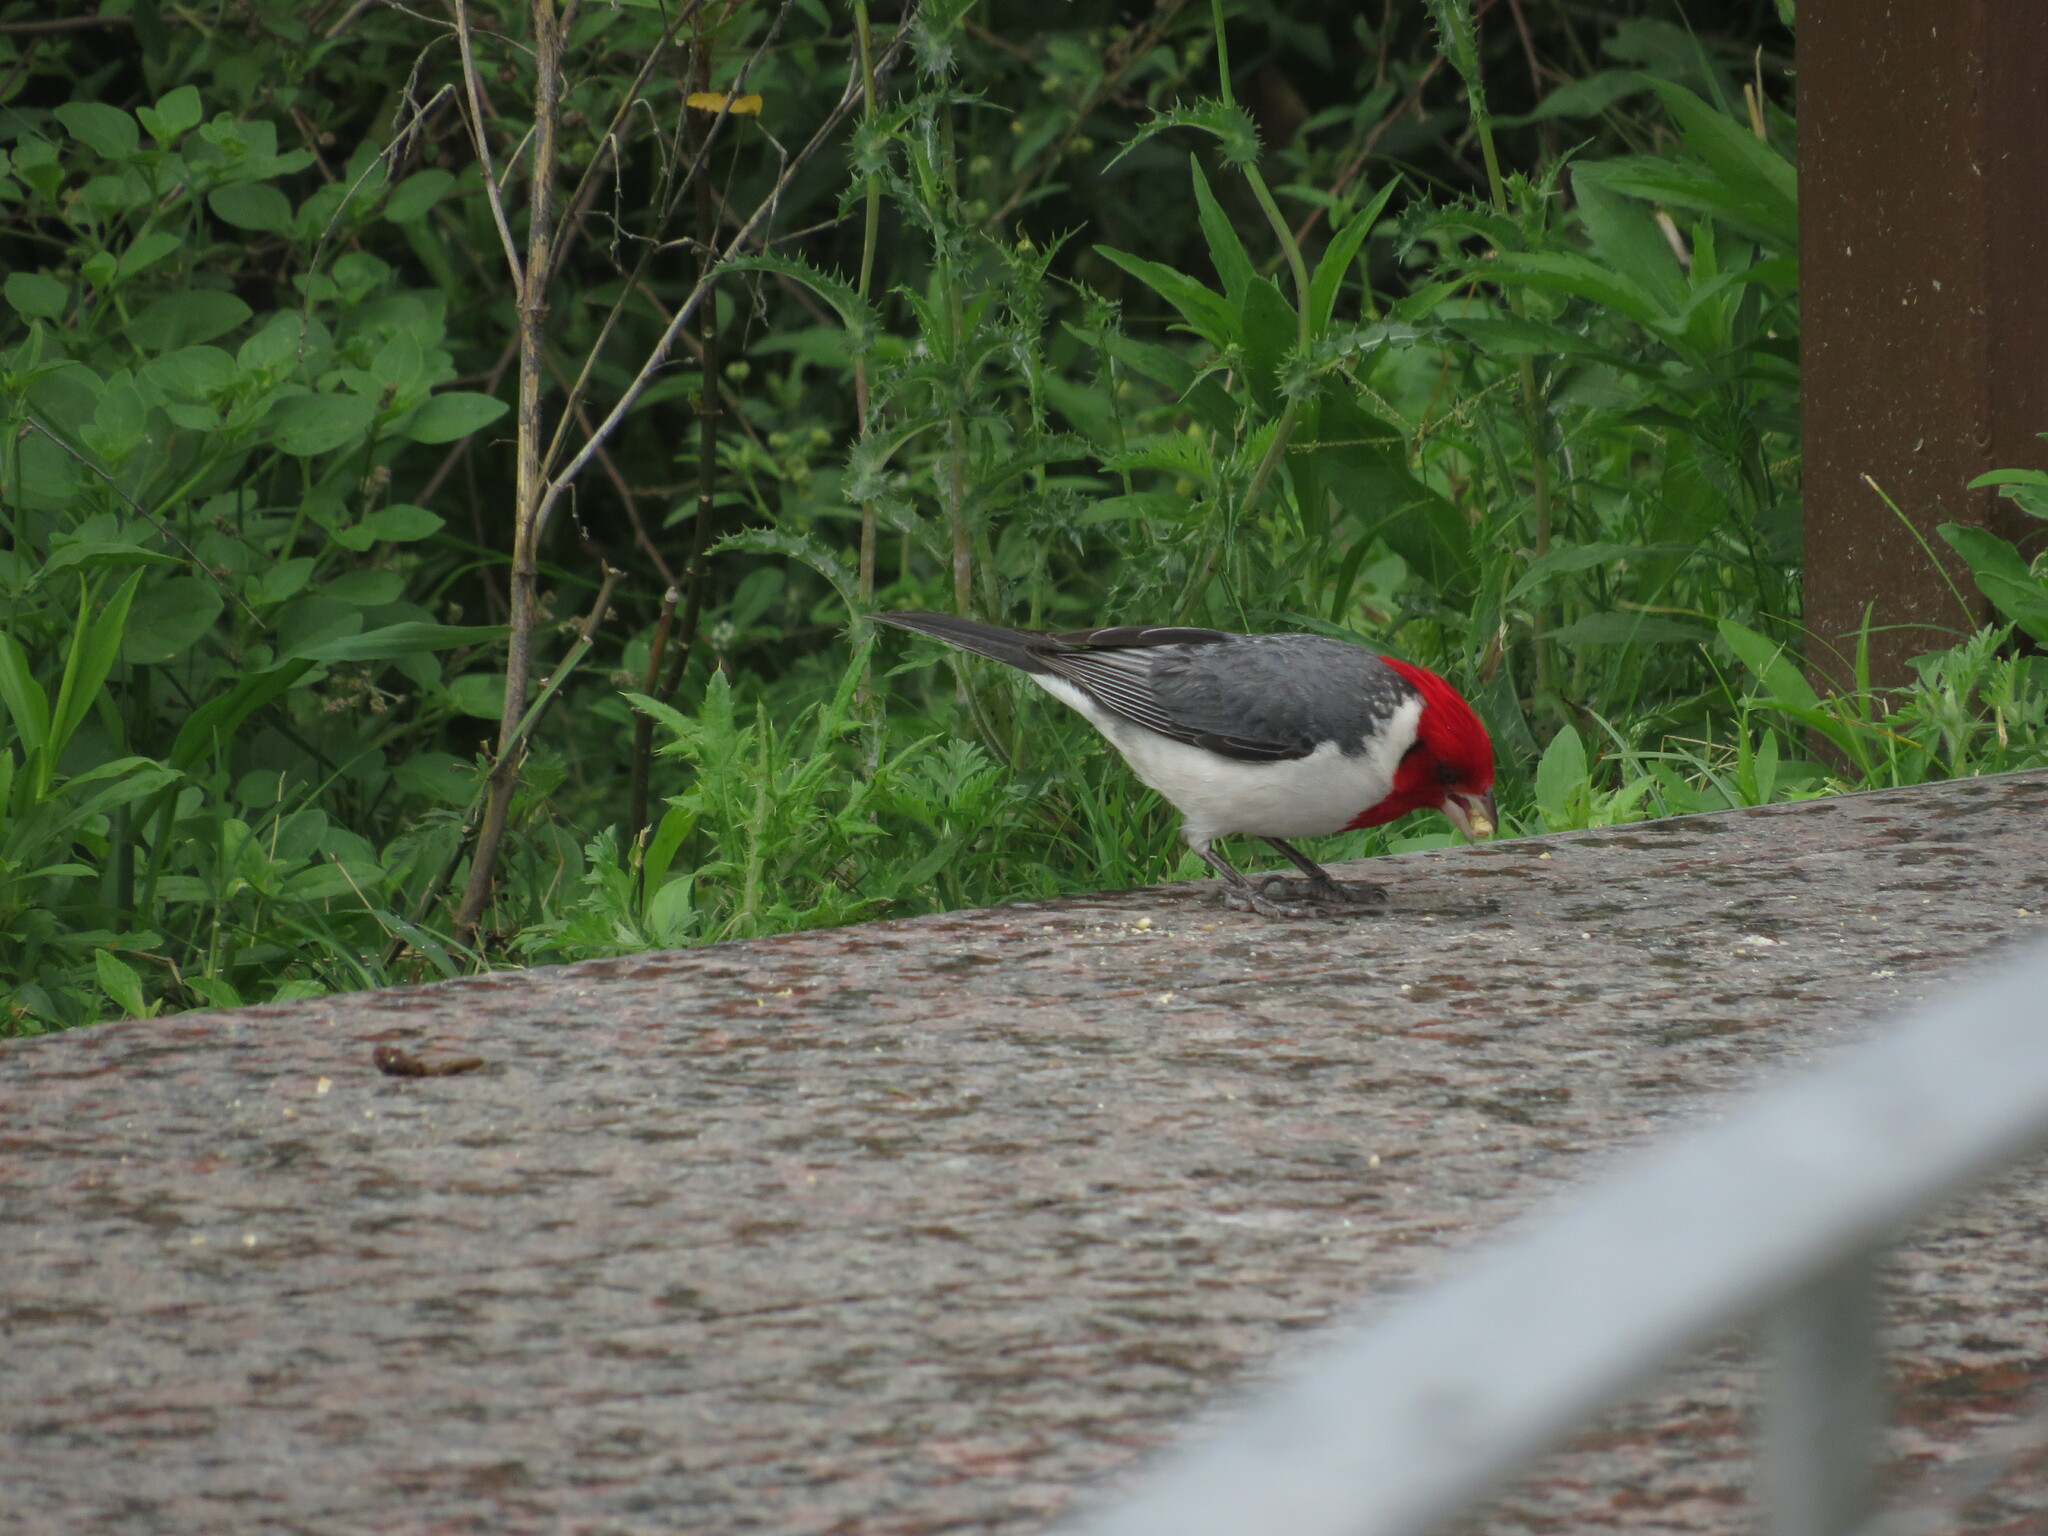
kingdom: Animalia
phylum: Chordata
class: Aves
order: Passeriformes
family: Thraupidae
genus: Paroaria
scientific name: Paroaria coronata
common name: Red-crested cardinal
